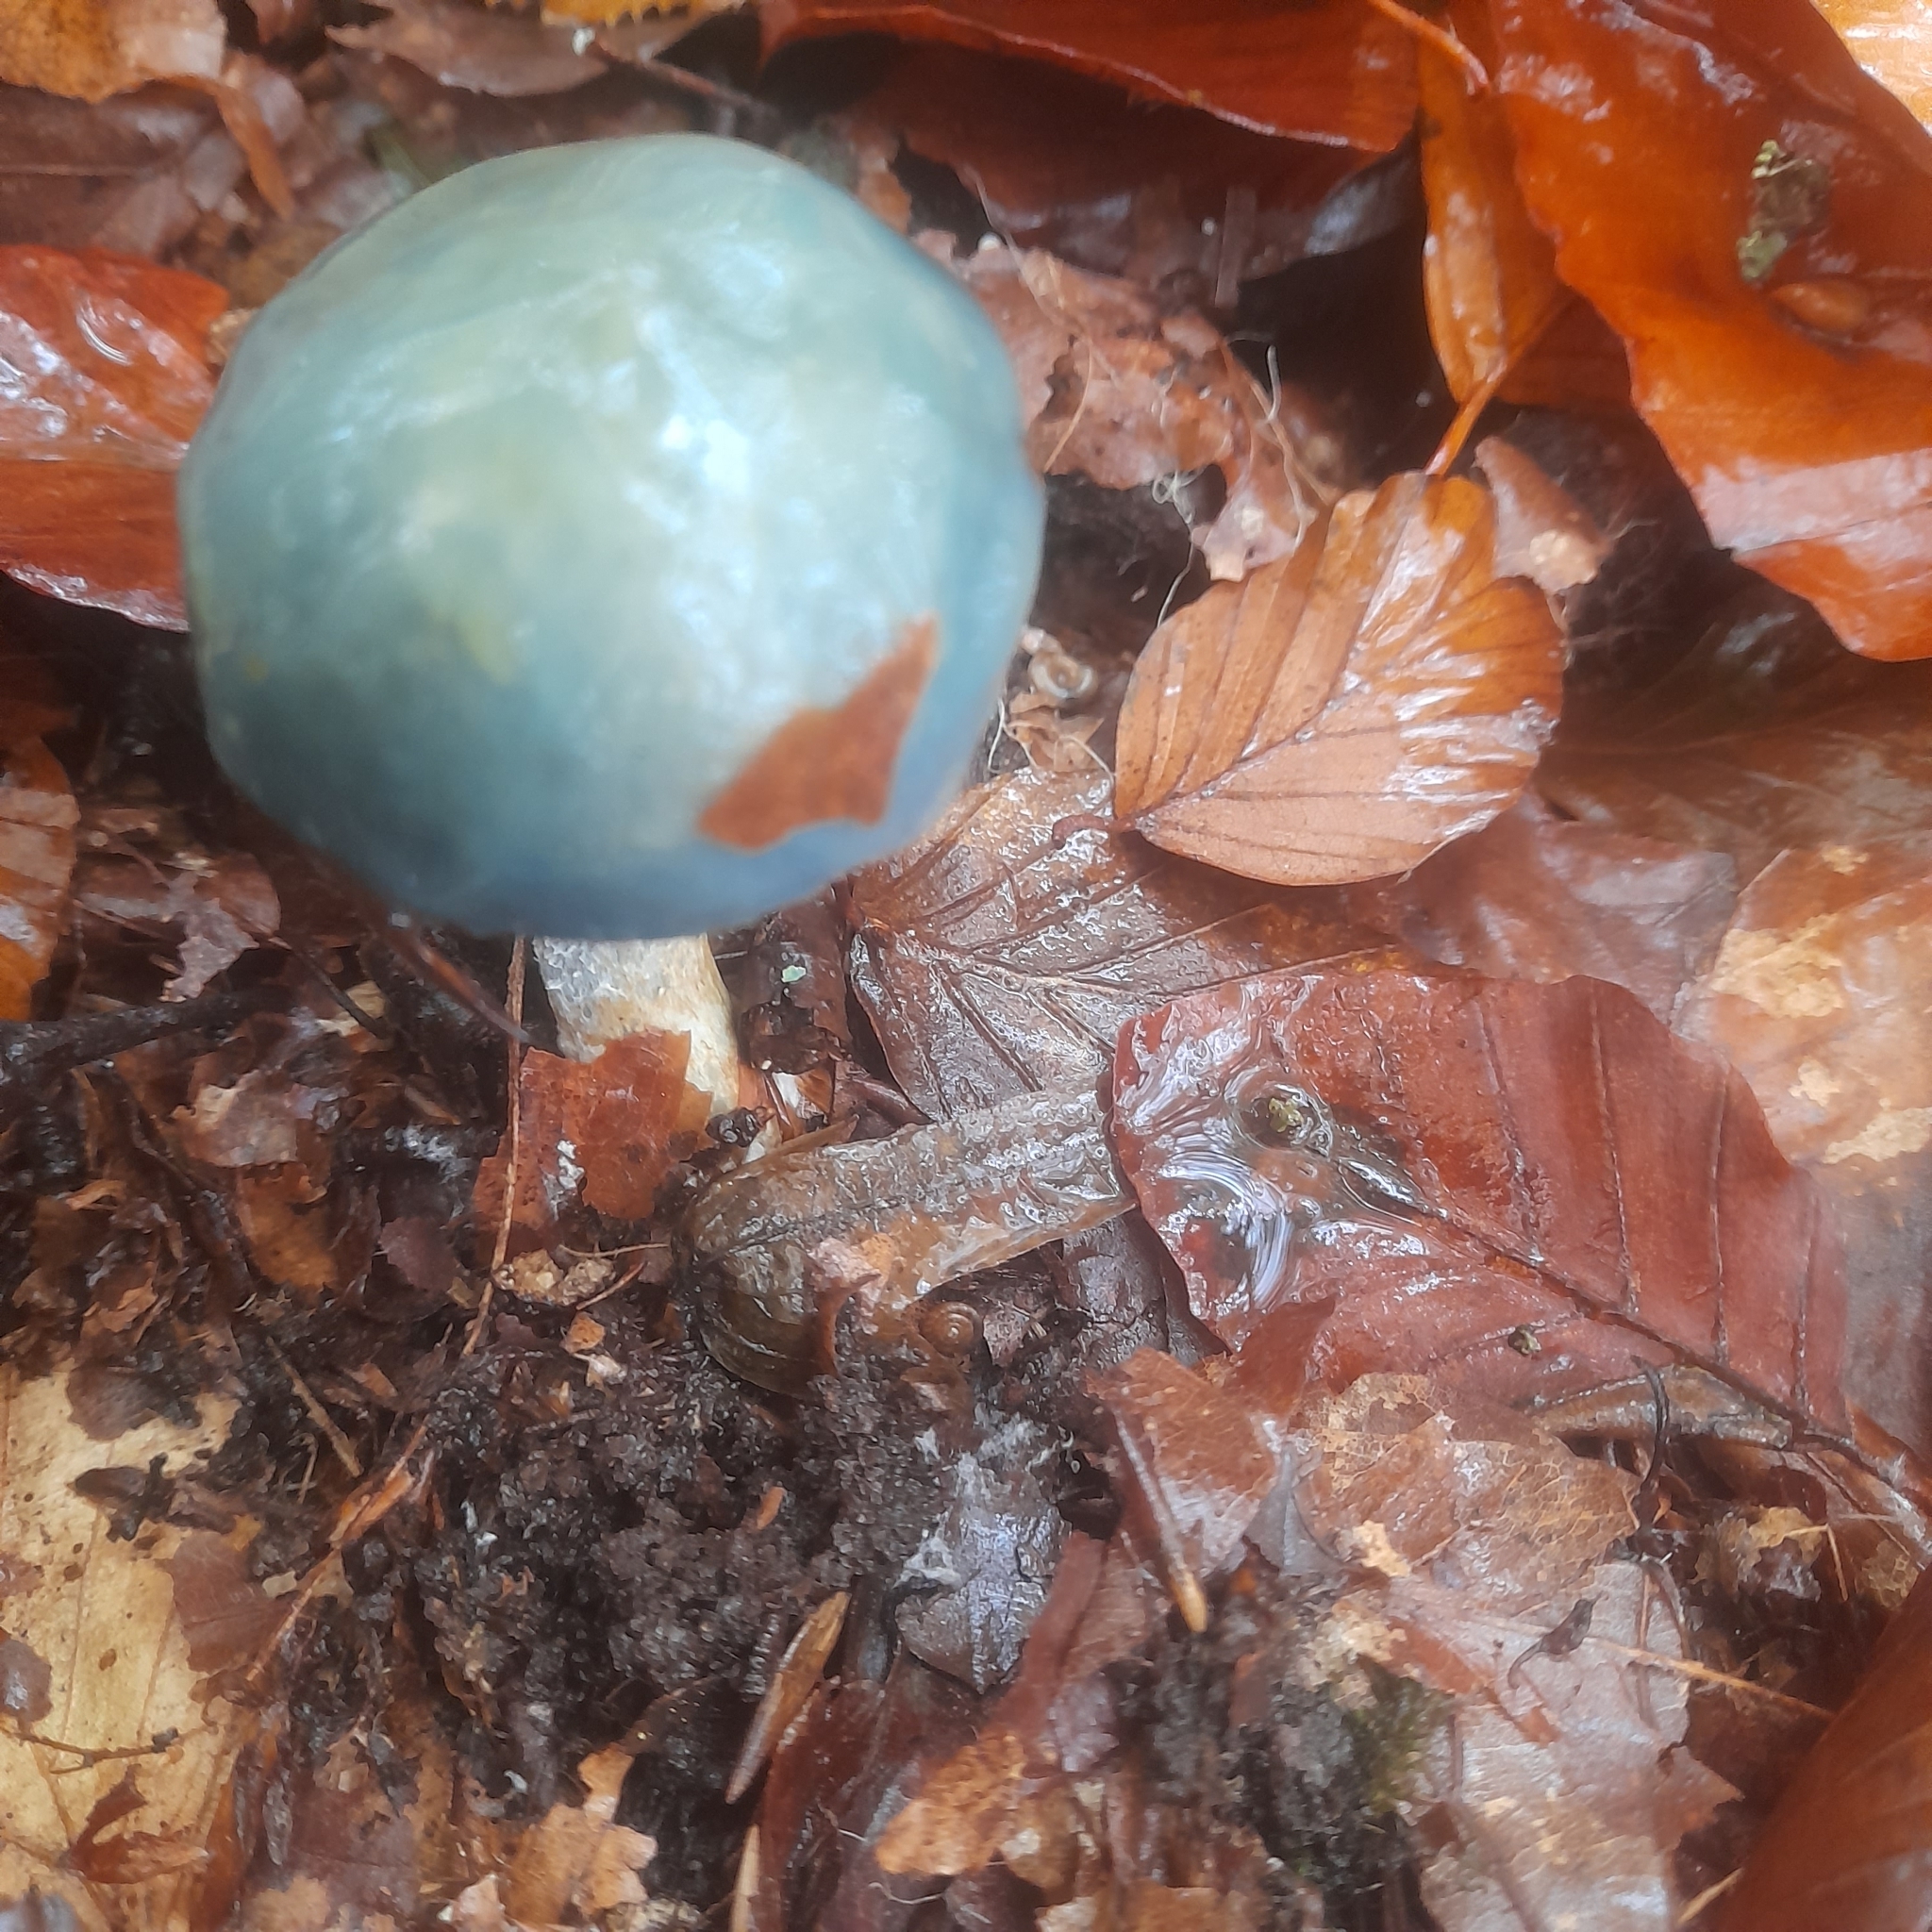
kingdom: Fungi
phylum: Basidiomycota
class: Agaricomycetes
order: Agaricales
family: Strophariaceae
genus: Stropharia
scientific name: Stropharia aeruginosa
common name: Verdigris roundhead
